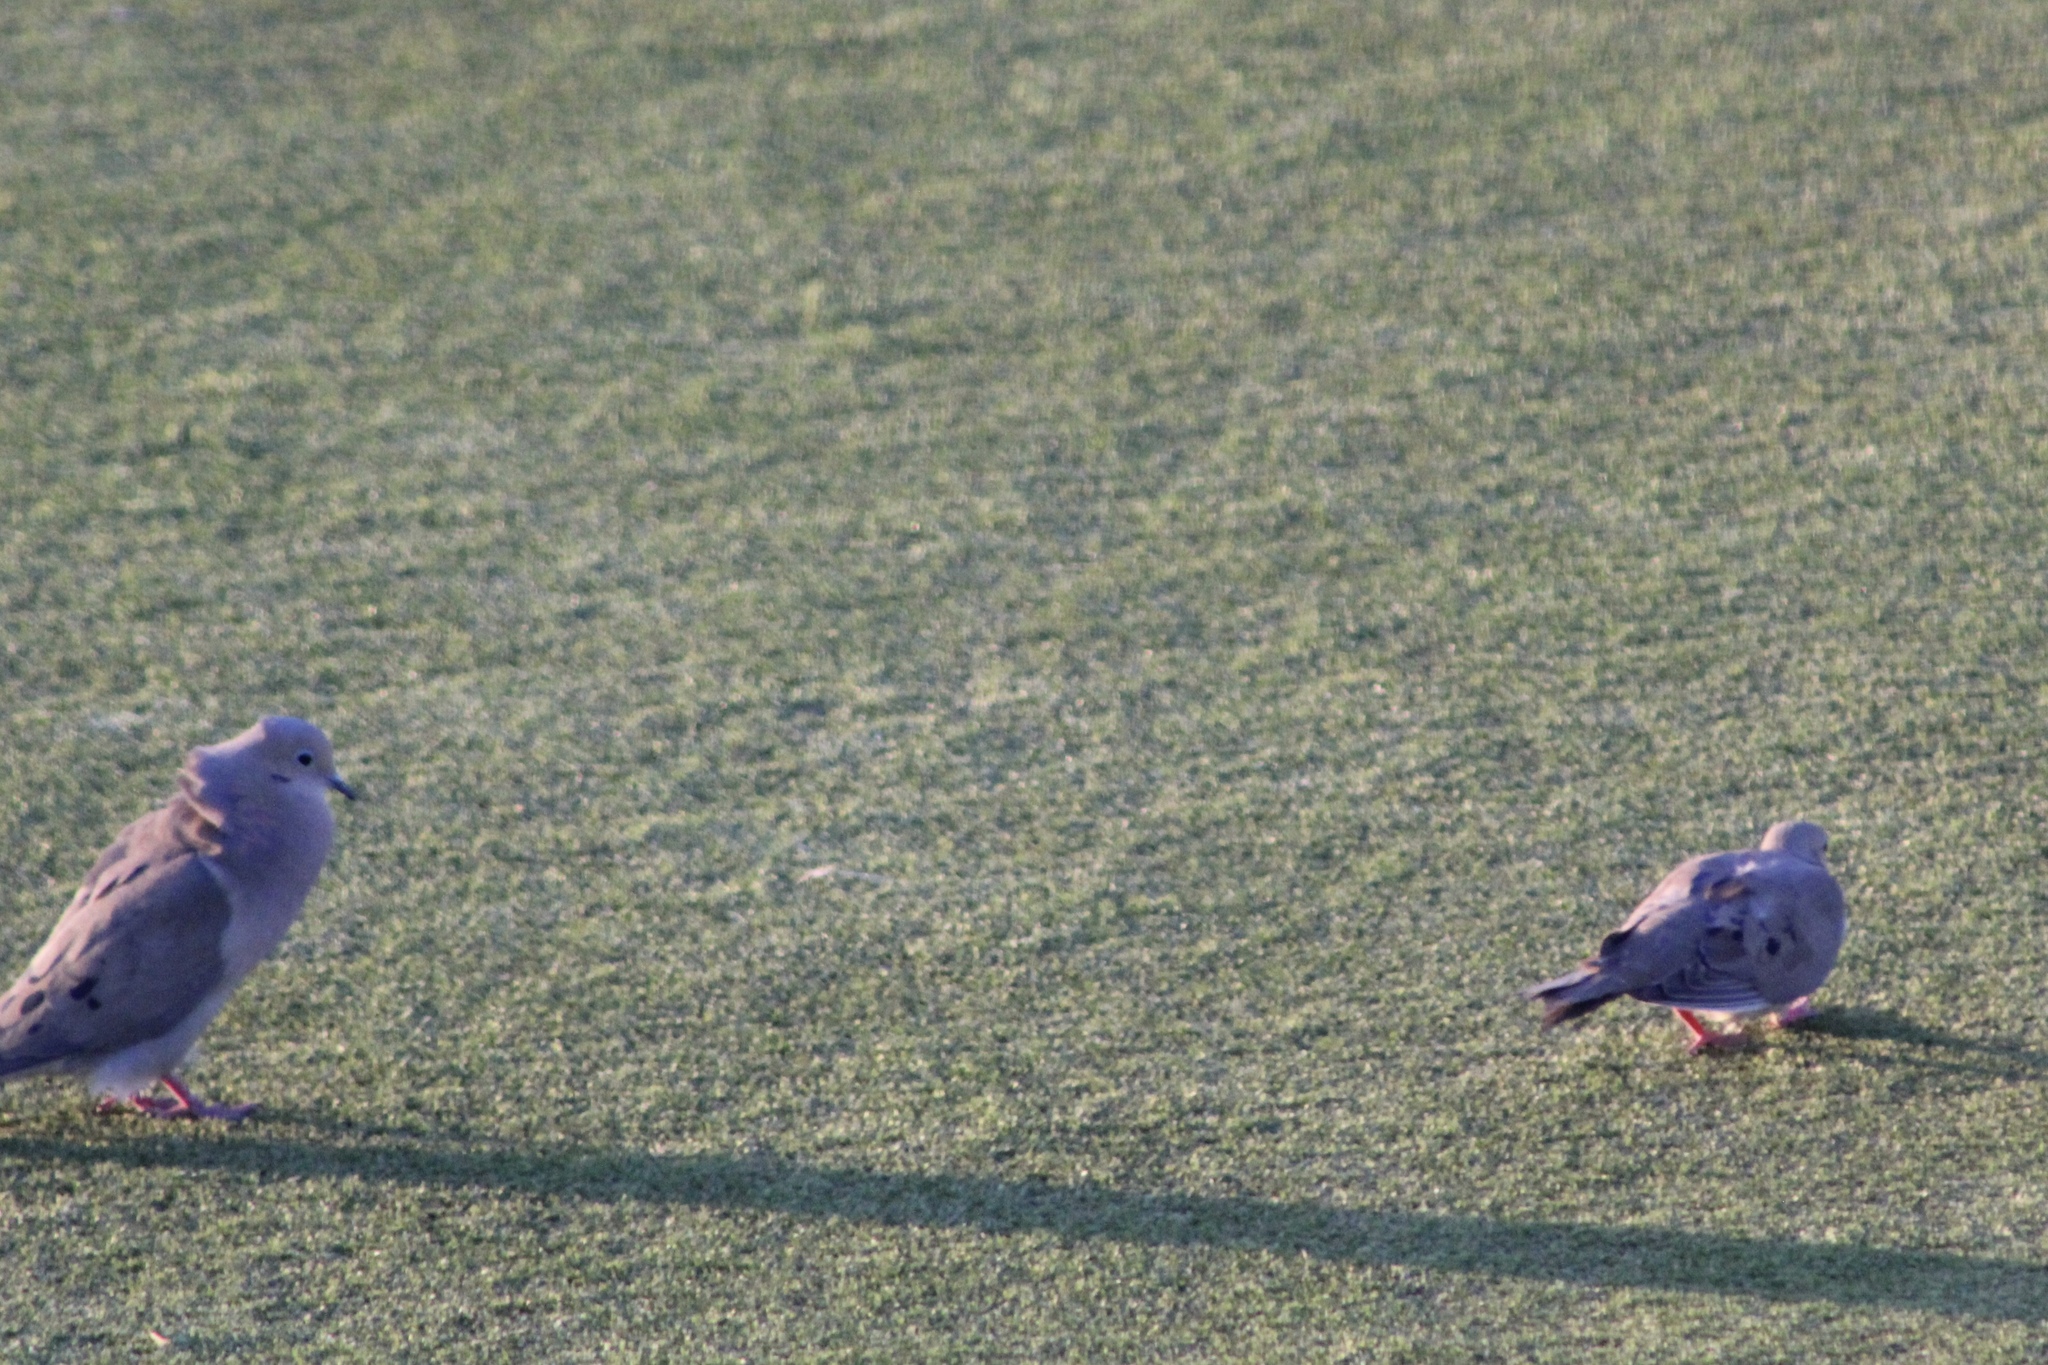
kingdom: Animalia
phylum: Chordata
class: Aves
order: Columbiformes
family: Columbidae
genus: Zenaida
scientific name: Zenaida macroura
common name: Mourning dove
